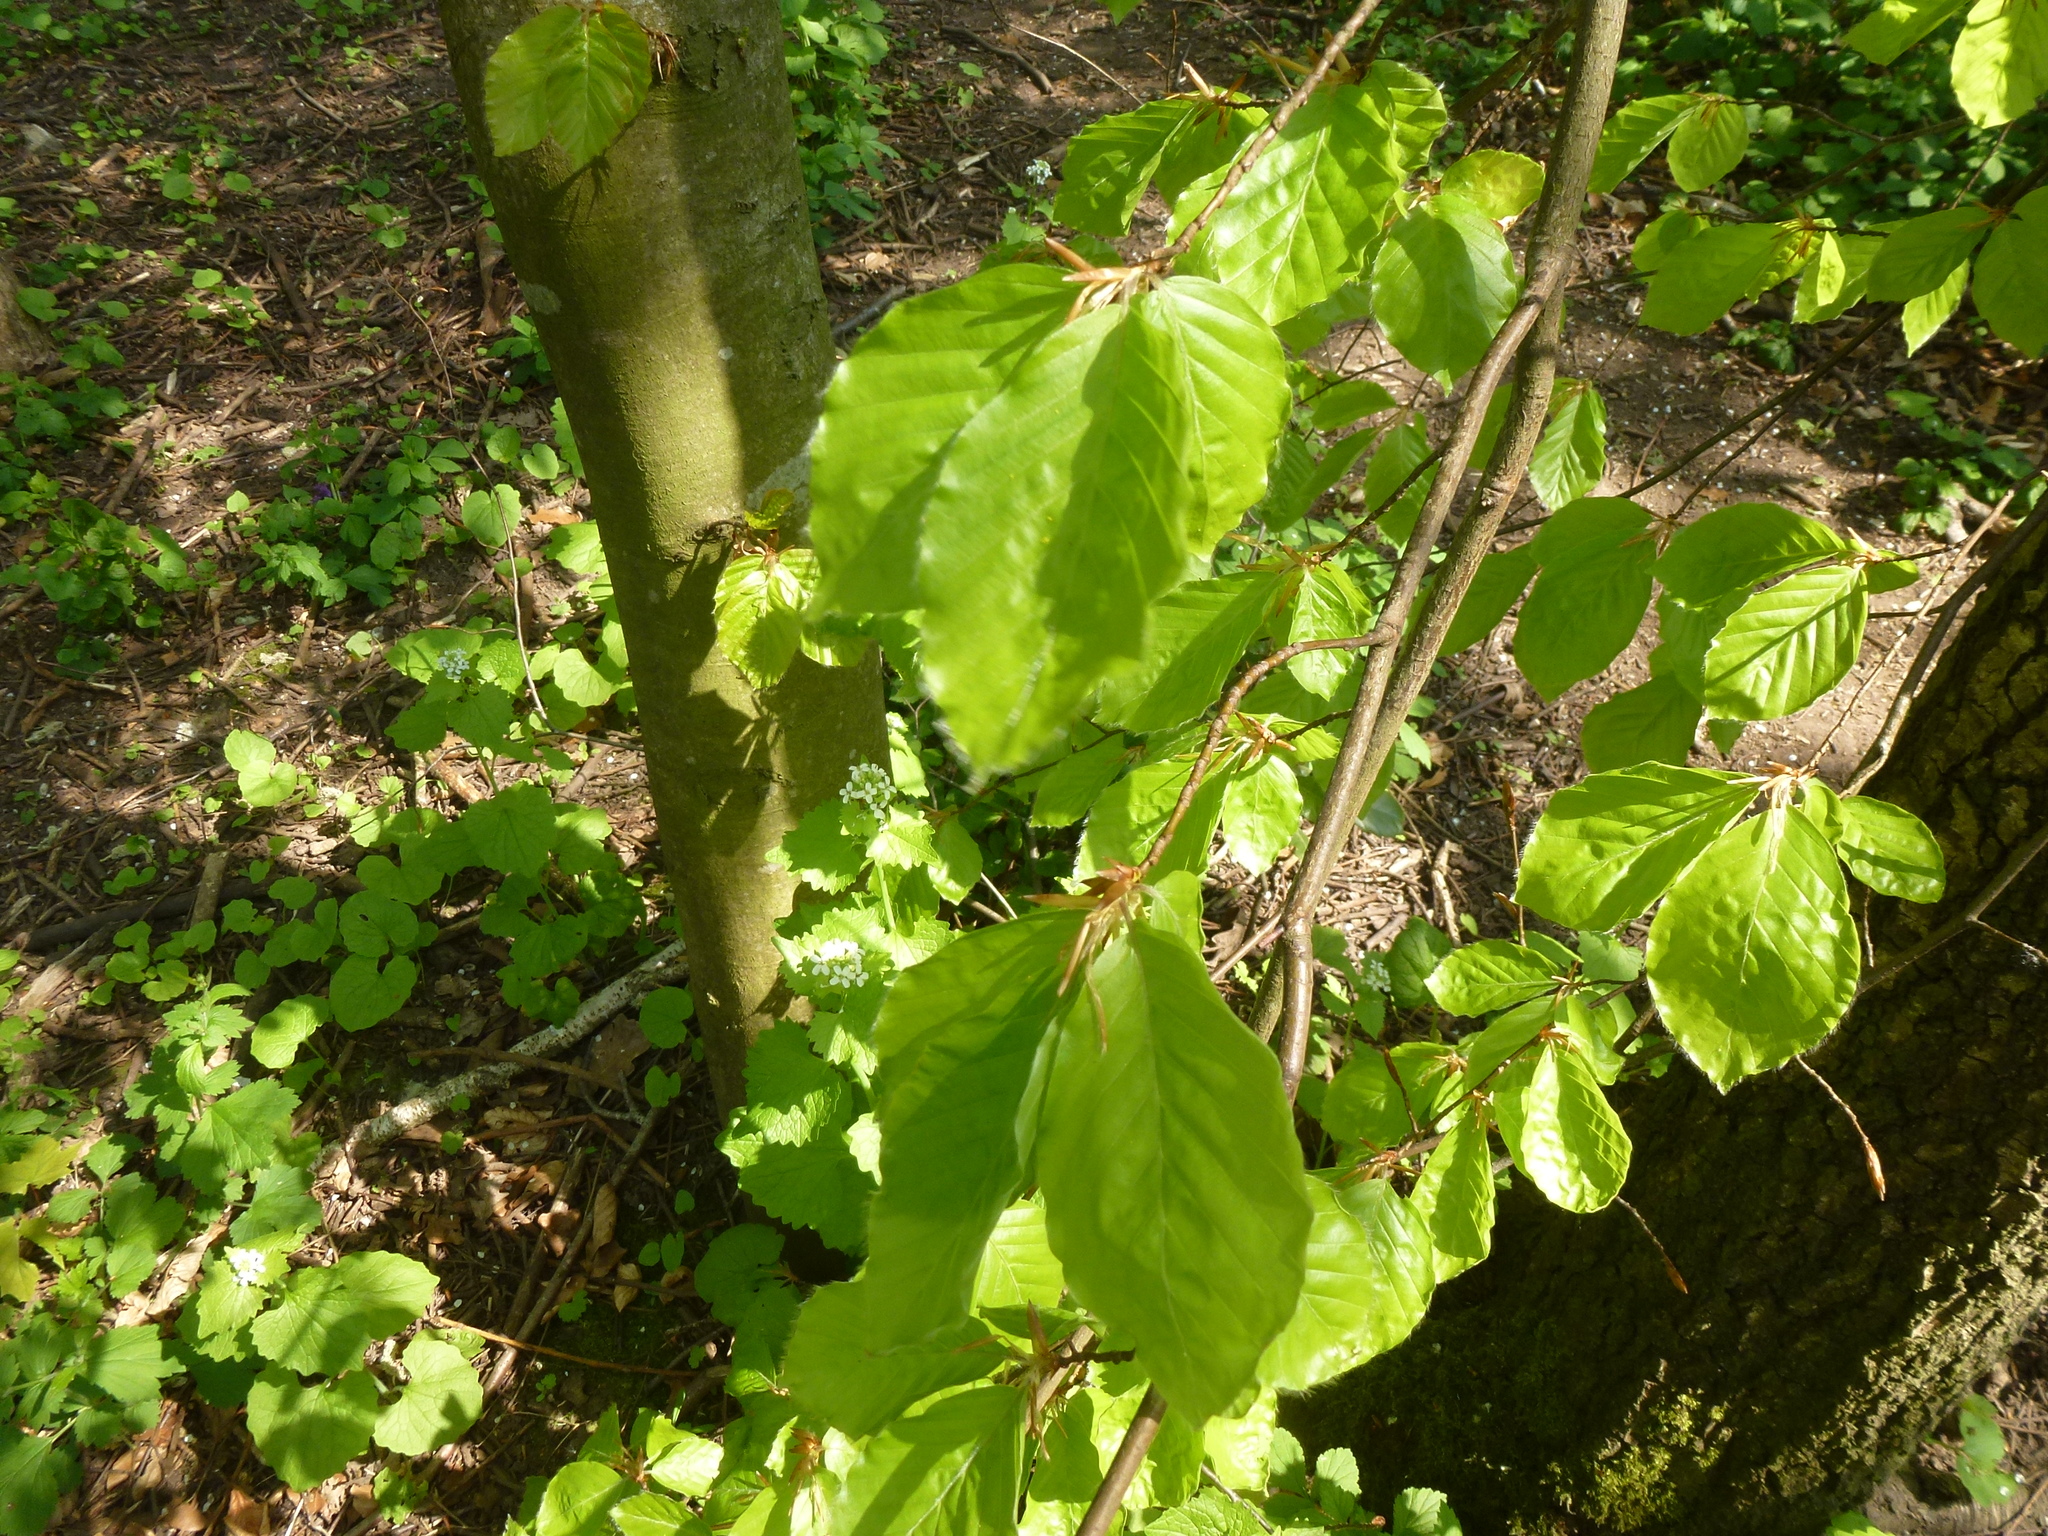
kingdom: Plantae
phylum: Tracheophyta
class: Magnoliopsida
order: Fagales
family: Fagaceae
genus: Fagus
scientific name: Fagus sylvatica
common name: Beech
